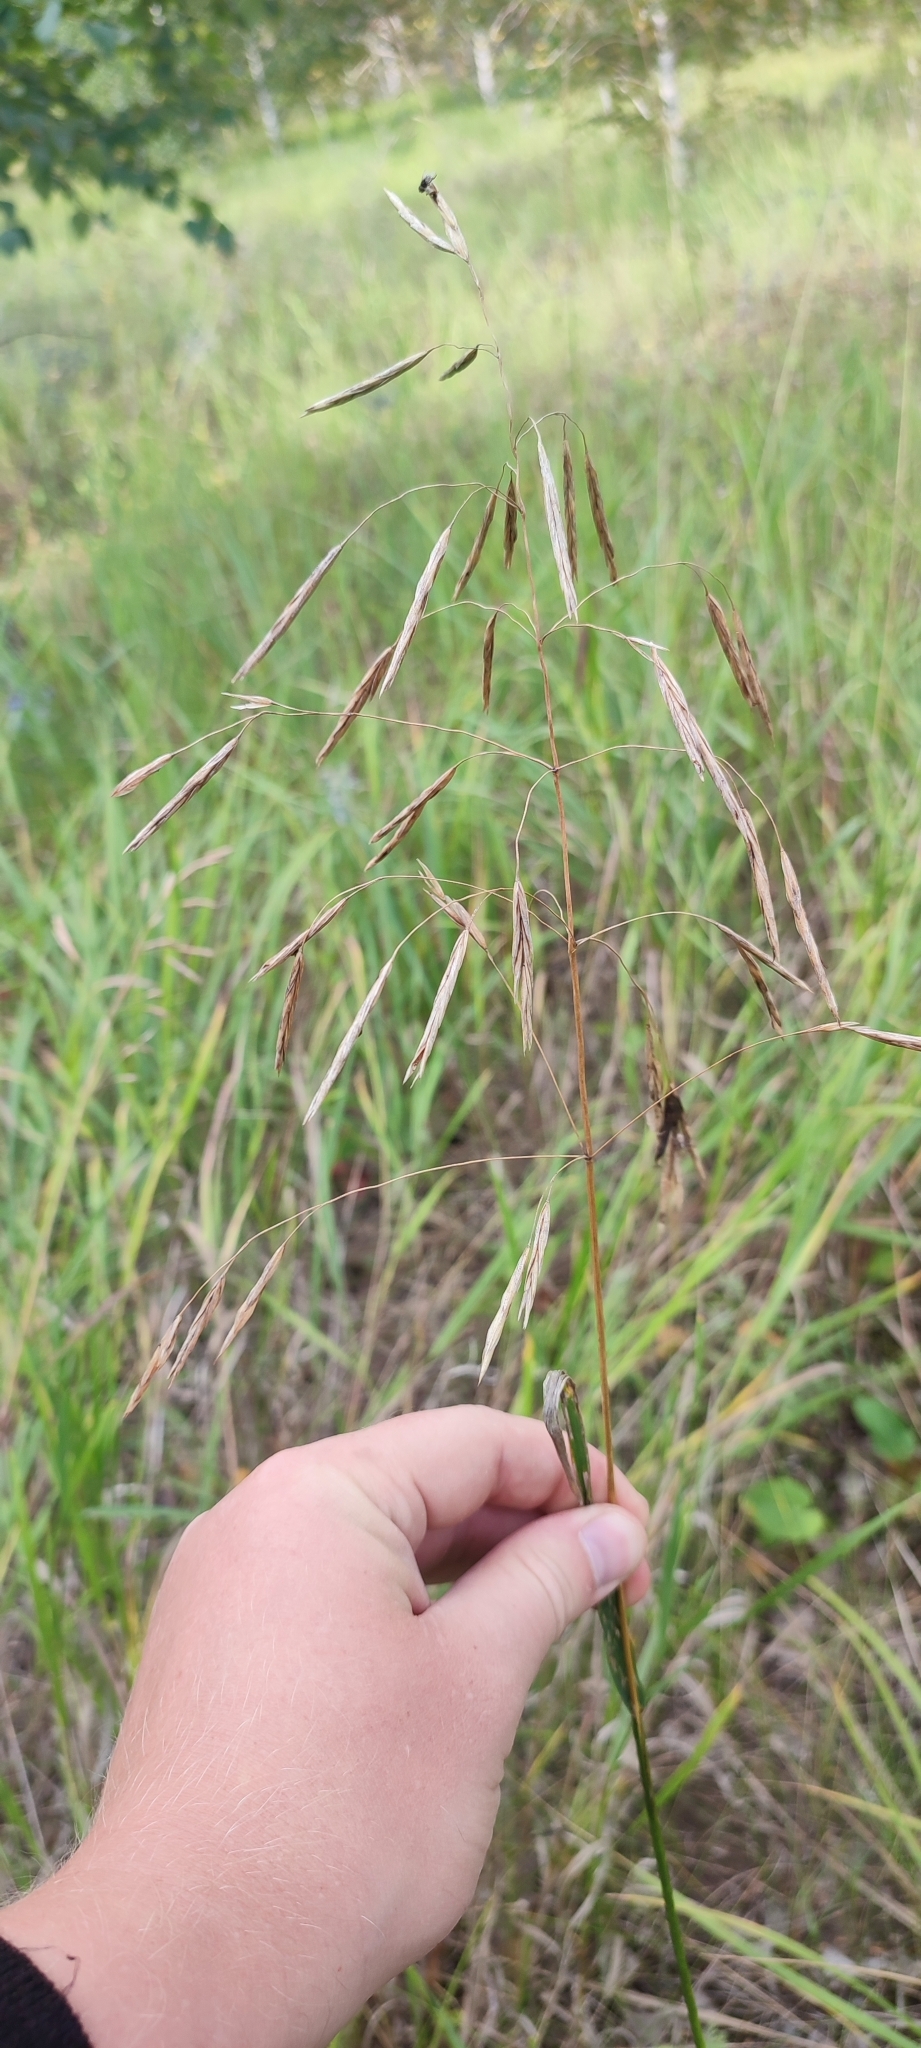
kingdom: Plantae
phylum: Tracheophyta
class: Liliopsida
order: Poales
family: Poaceae
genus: Bromus
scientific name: Bromus inermis
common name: Smooth brome
